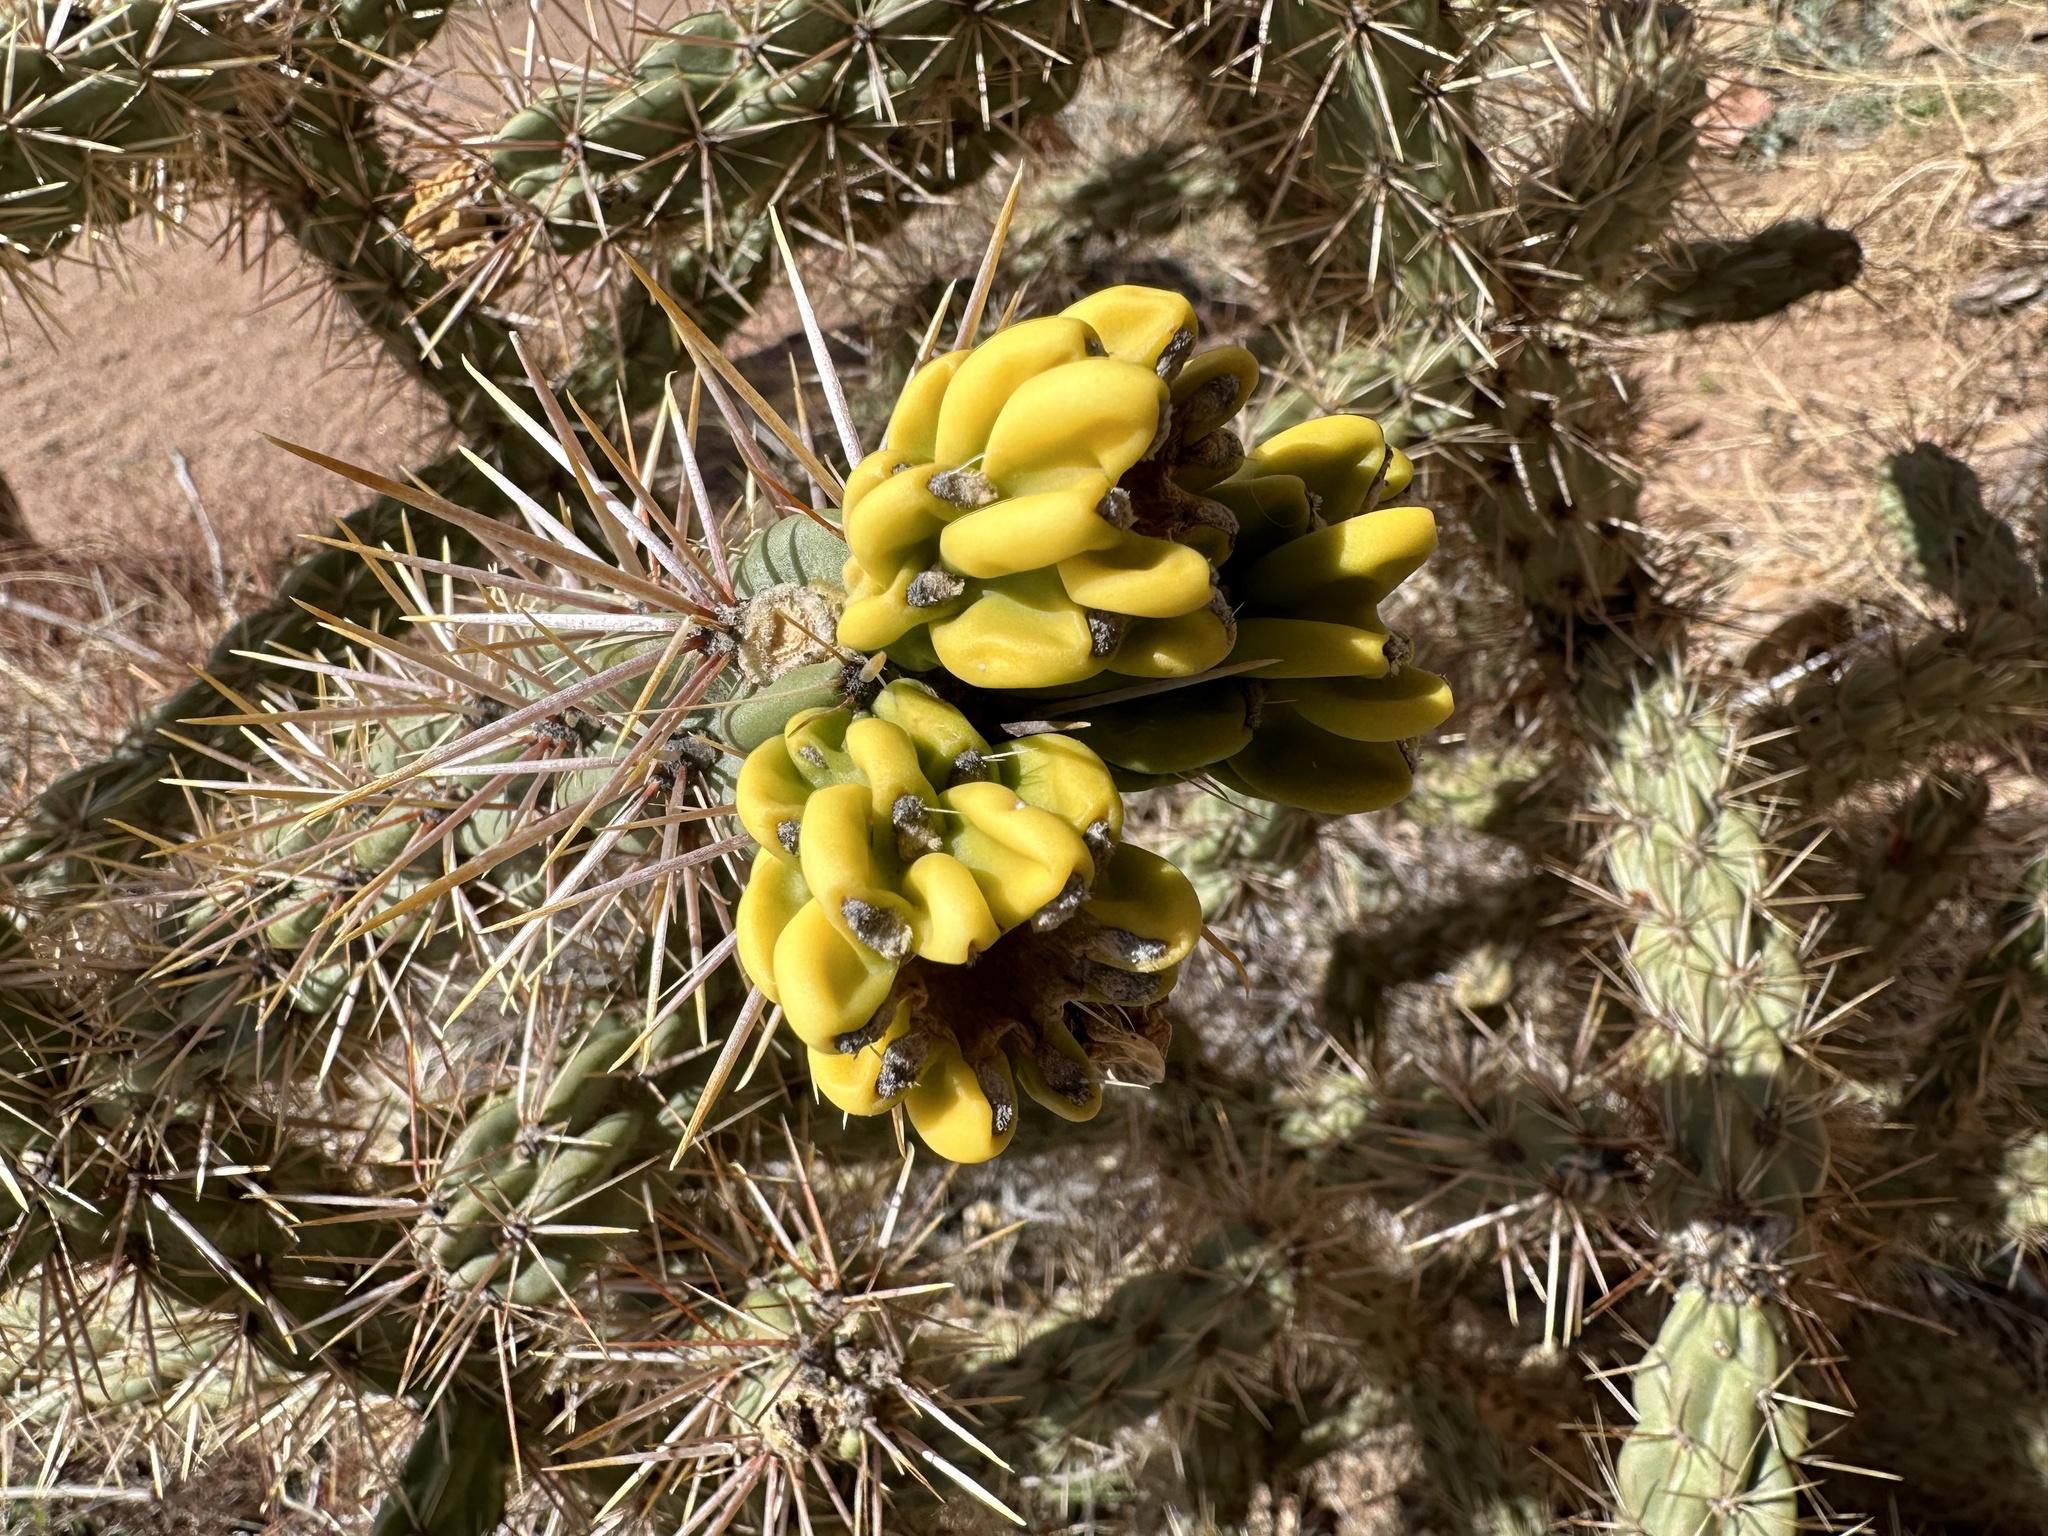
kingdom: Plantae
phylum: Tracheophyta
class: Magnoliopsida
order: Caryophyllales
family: Cactaceae
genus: Cylindropuntia
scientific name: Cylindropuntia imbricata
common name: Candelabrum cactus
